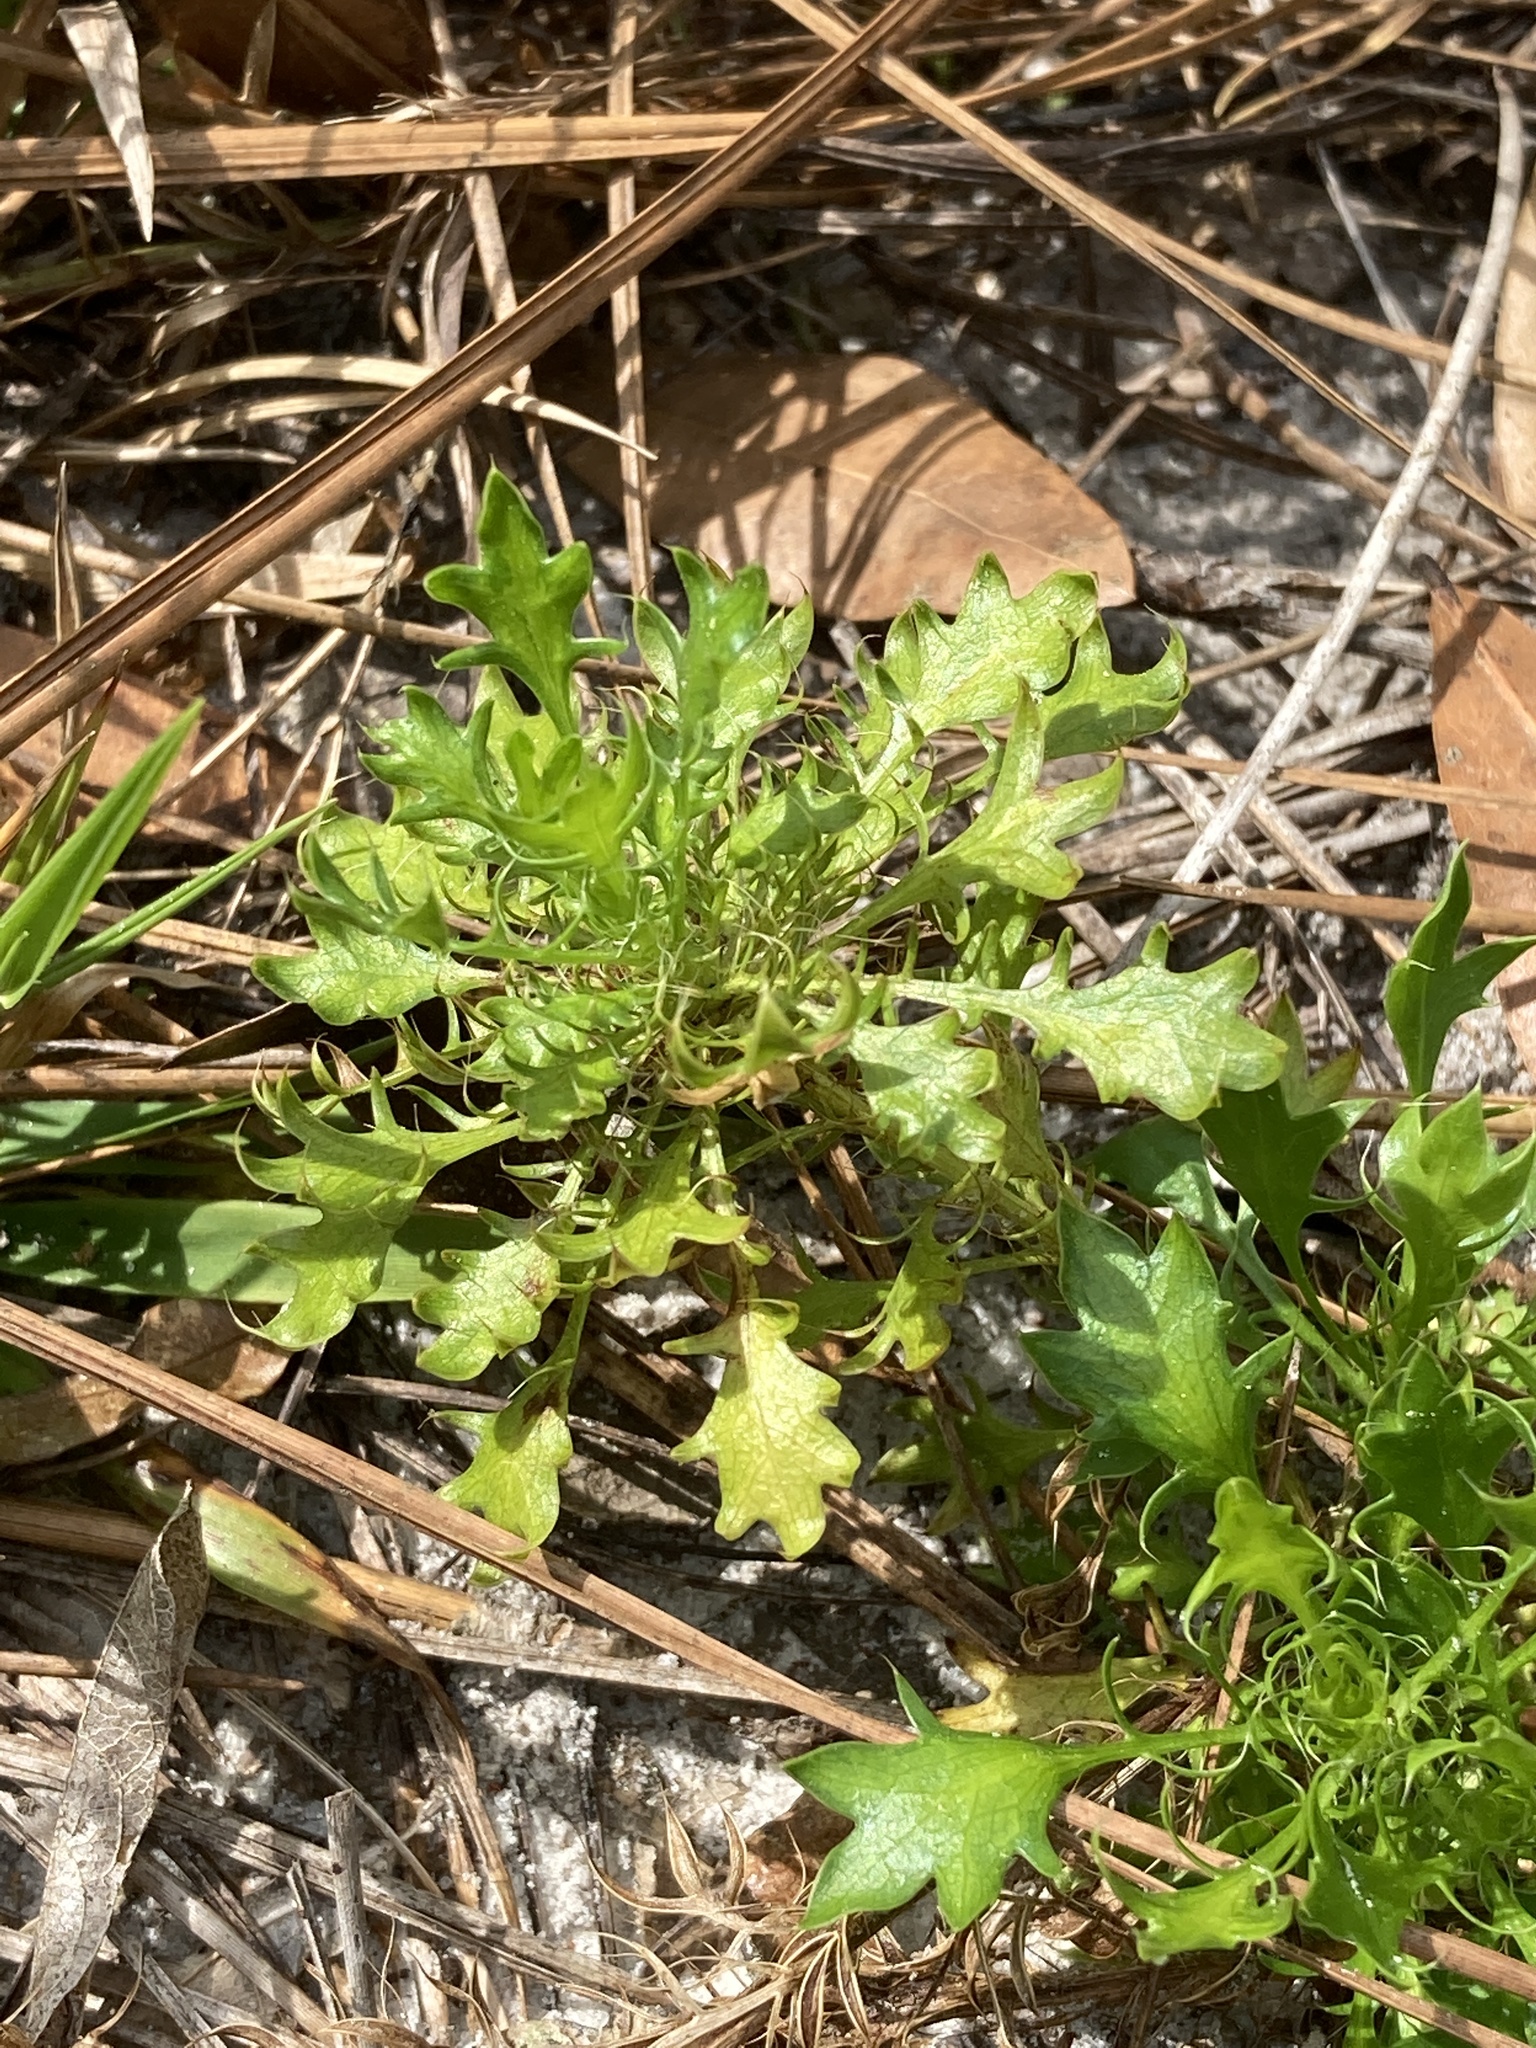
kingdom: Plantae
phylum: Tracheophyta
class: Magnoliopsida
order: Apiales
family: Apiaceae
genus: Eryngium
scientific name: Eryngium aromaticum
